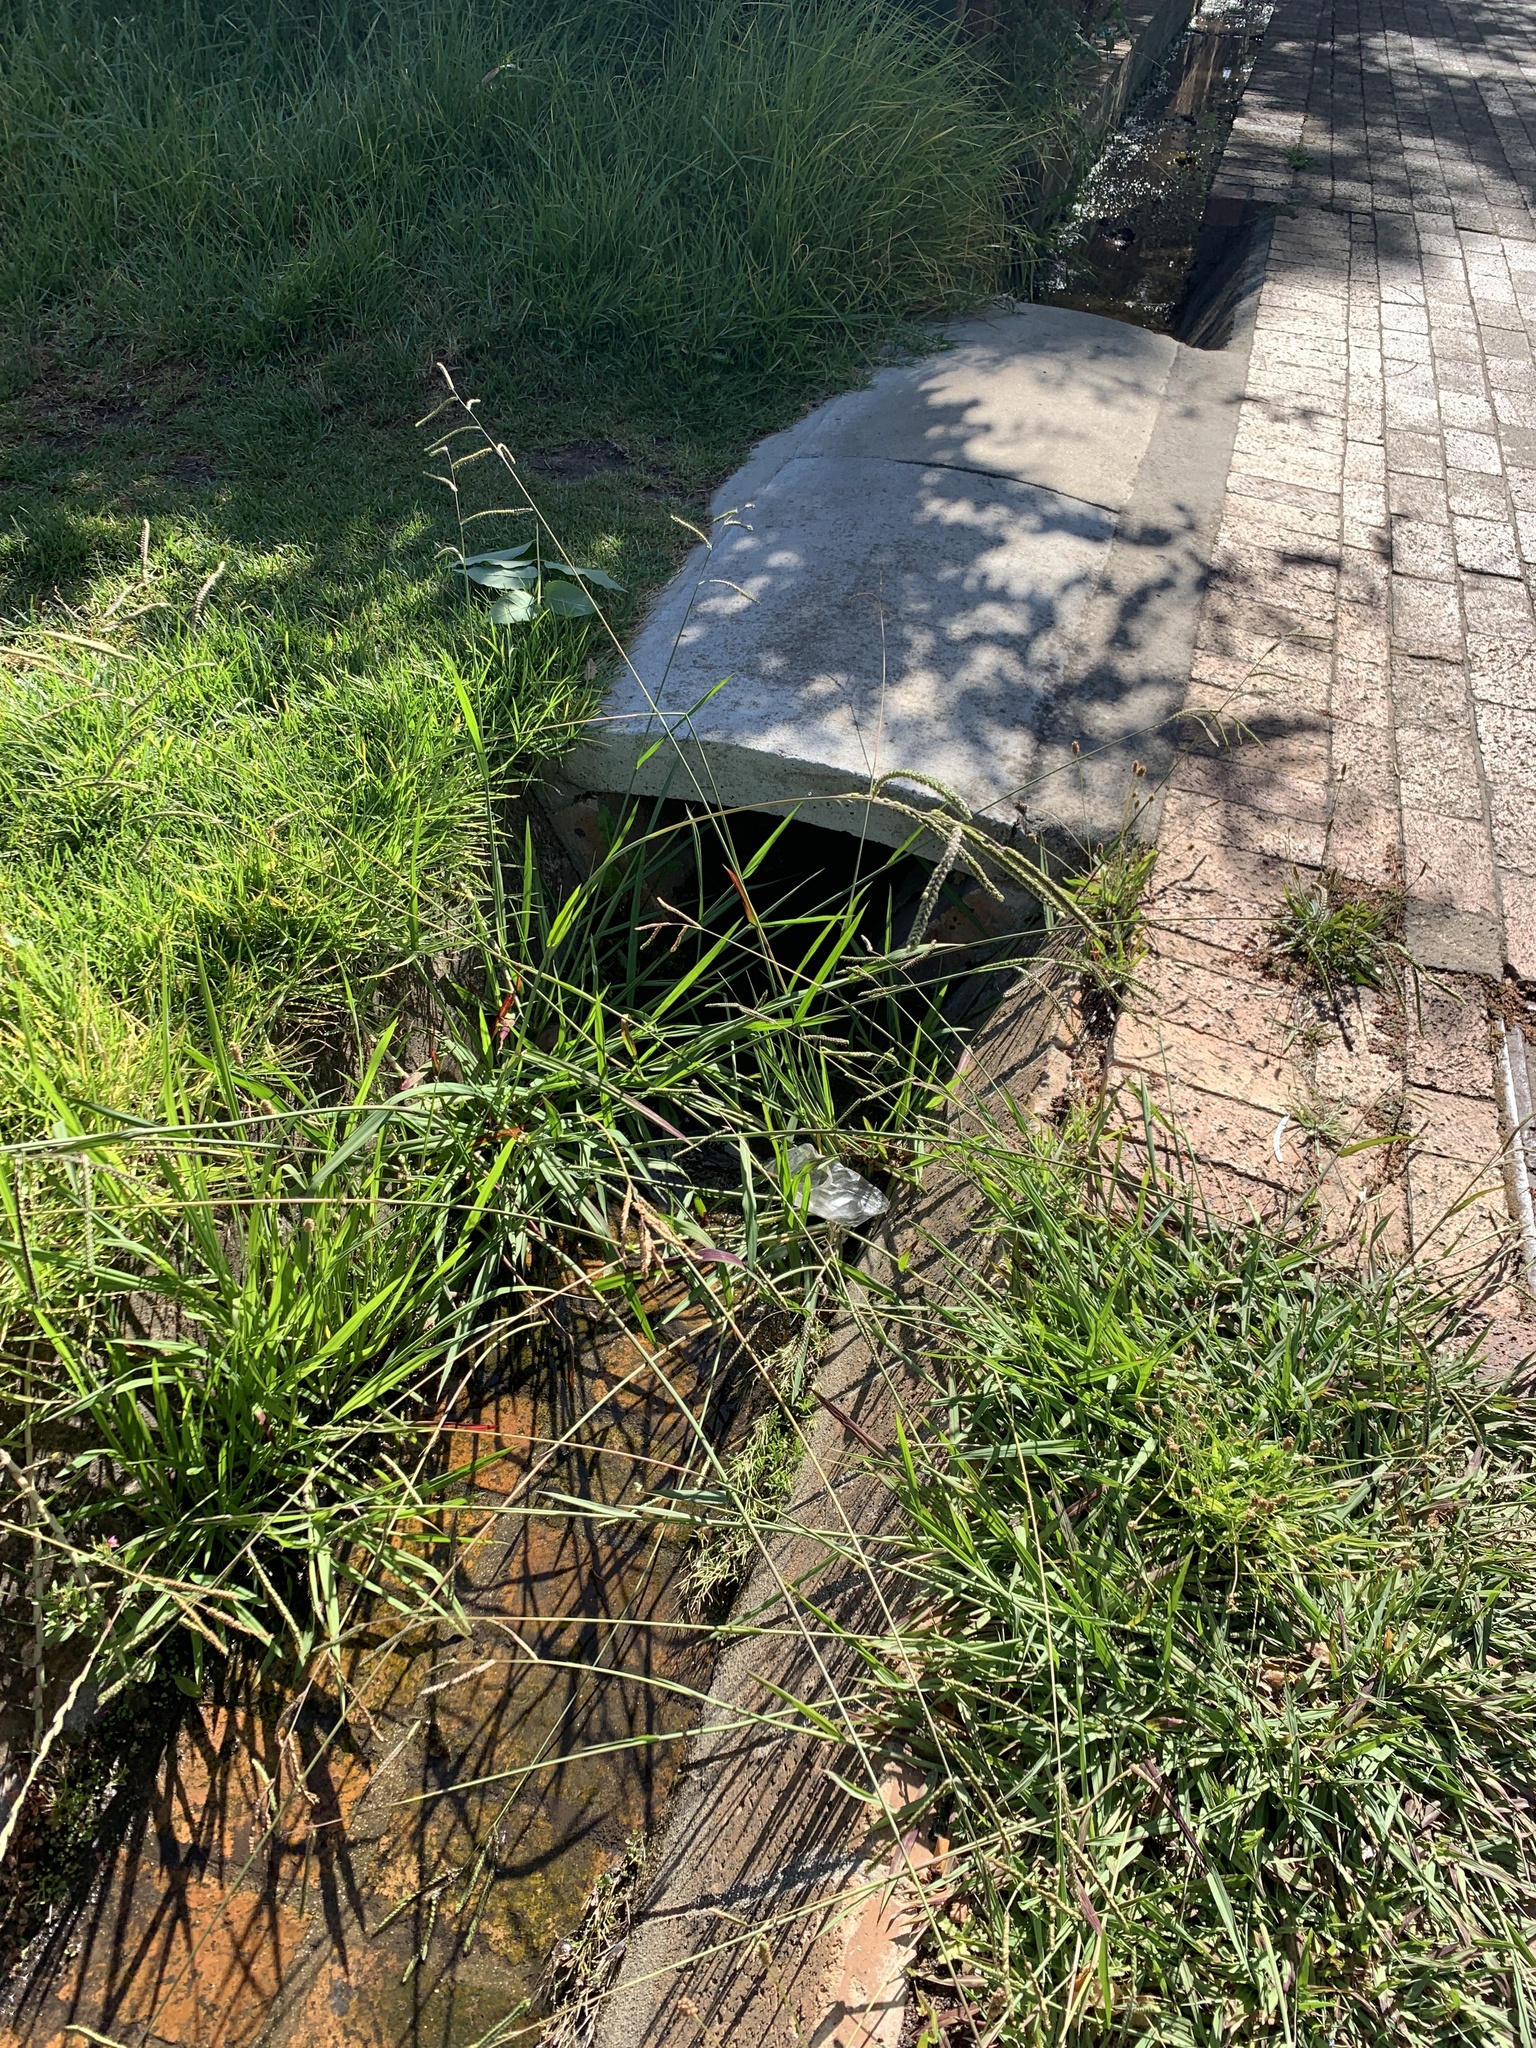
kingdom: Plantae
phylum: Tracheophyta
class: Liliopsida
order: Poales
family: Poaceae
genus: Paspalum
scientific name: Paspalum dilatatum
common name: Dallisgrass
